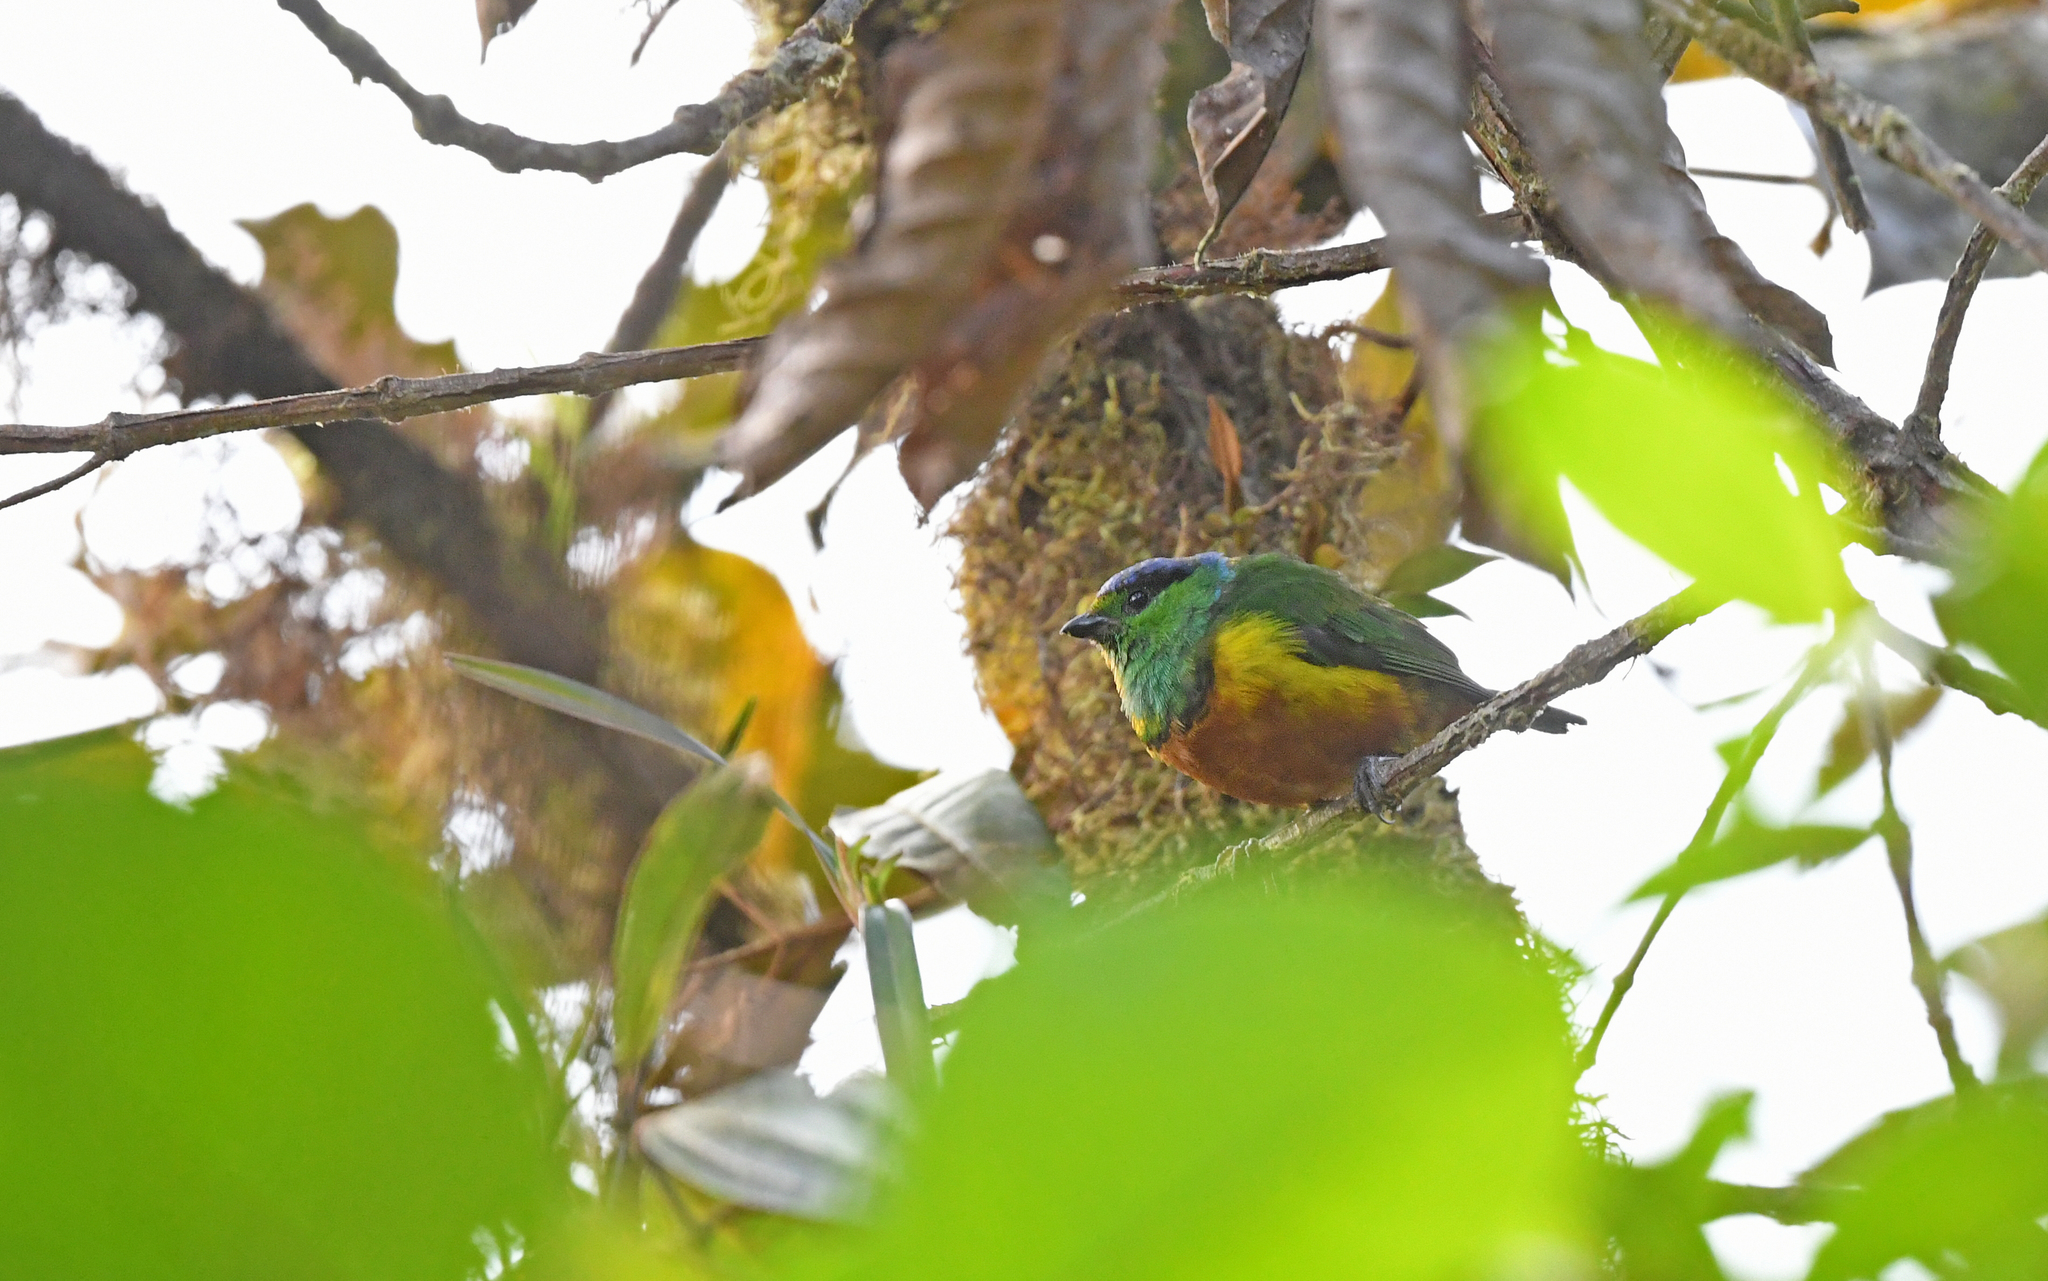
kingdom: Animalia
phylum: Chordata
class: Aves
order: Passeriformes
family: Fringillidae
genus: Chlorophonia
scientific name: Chlorophonia pyrrhophrys
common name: Chestnut-breasted chlorophonia
